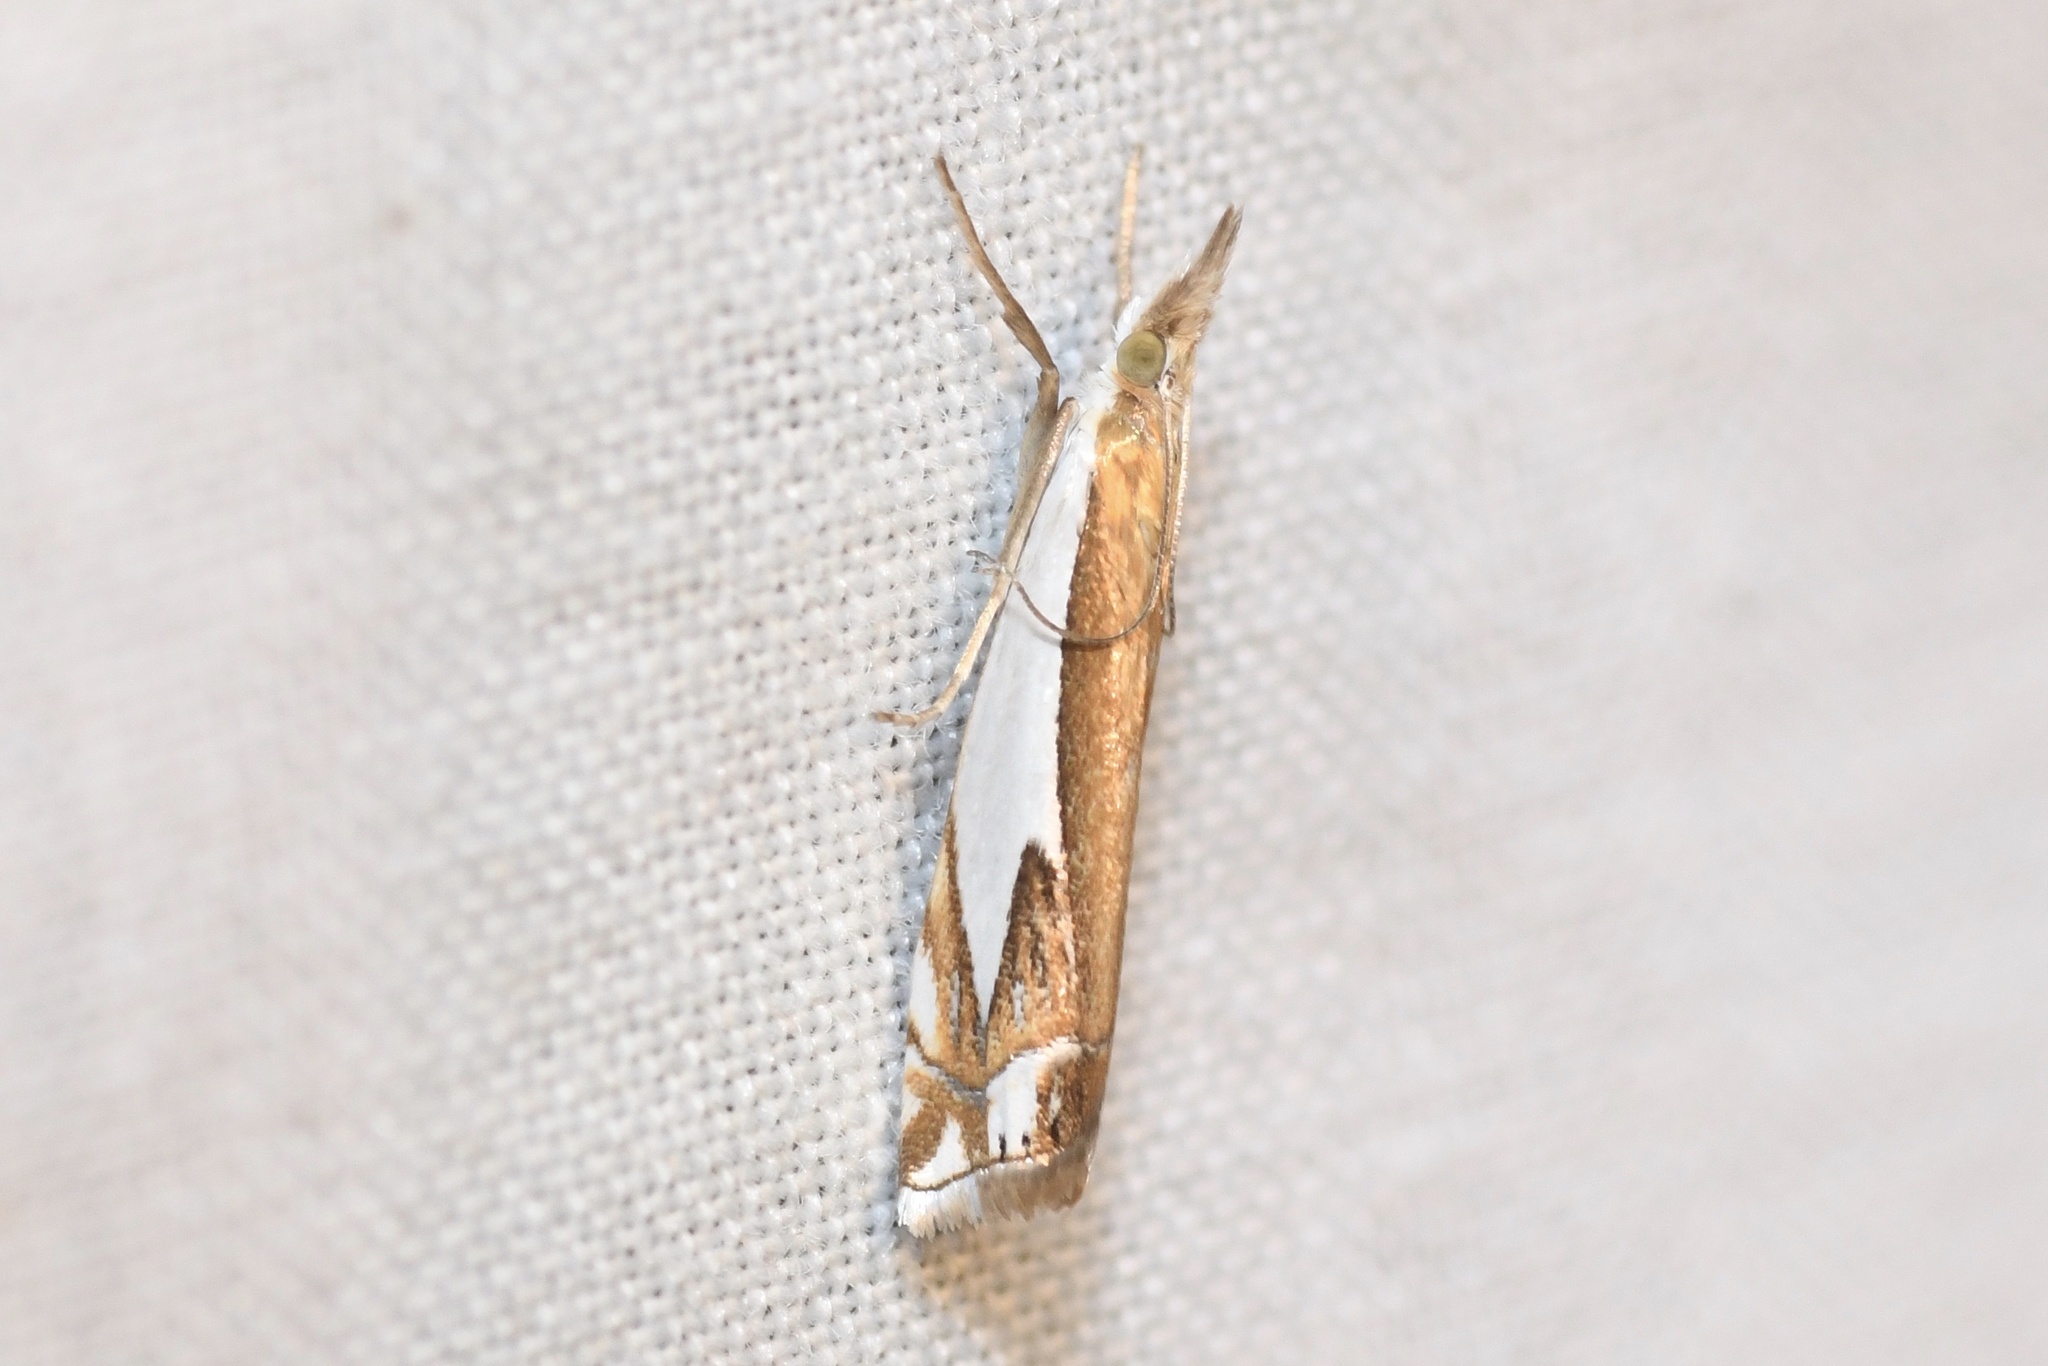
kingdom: Animalia
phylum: Arthropoda
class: Insecta
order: Lepidoptera
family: Crambidae
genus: Crambus
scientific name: Crambus bidens
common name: Forked grass-veneer
